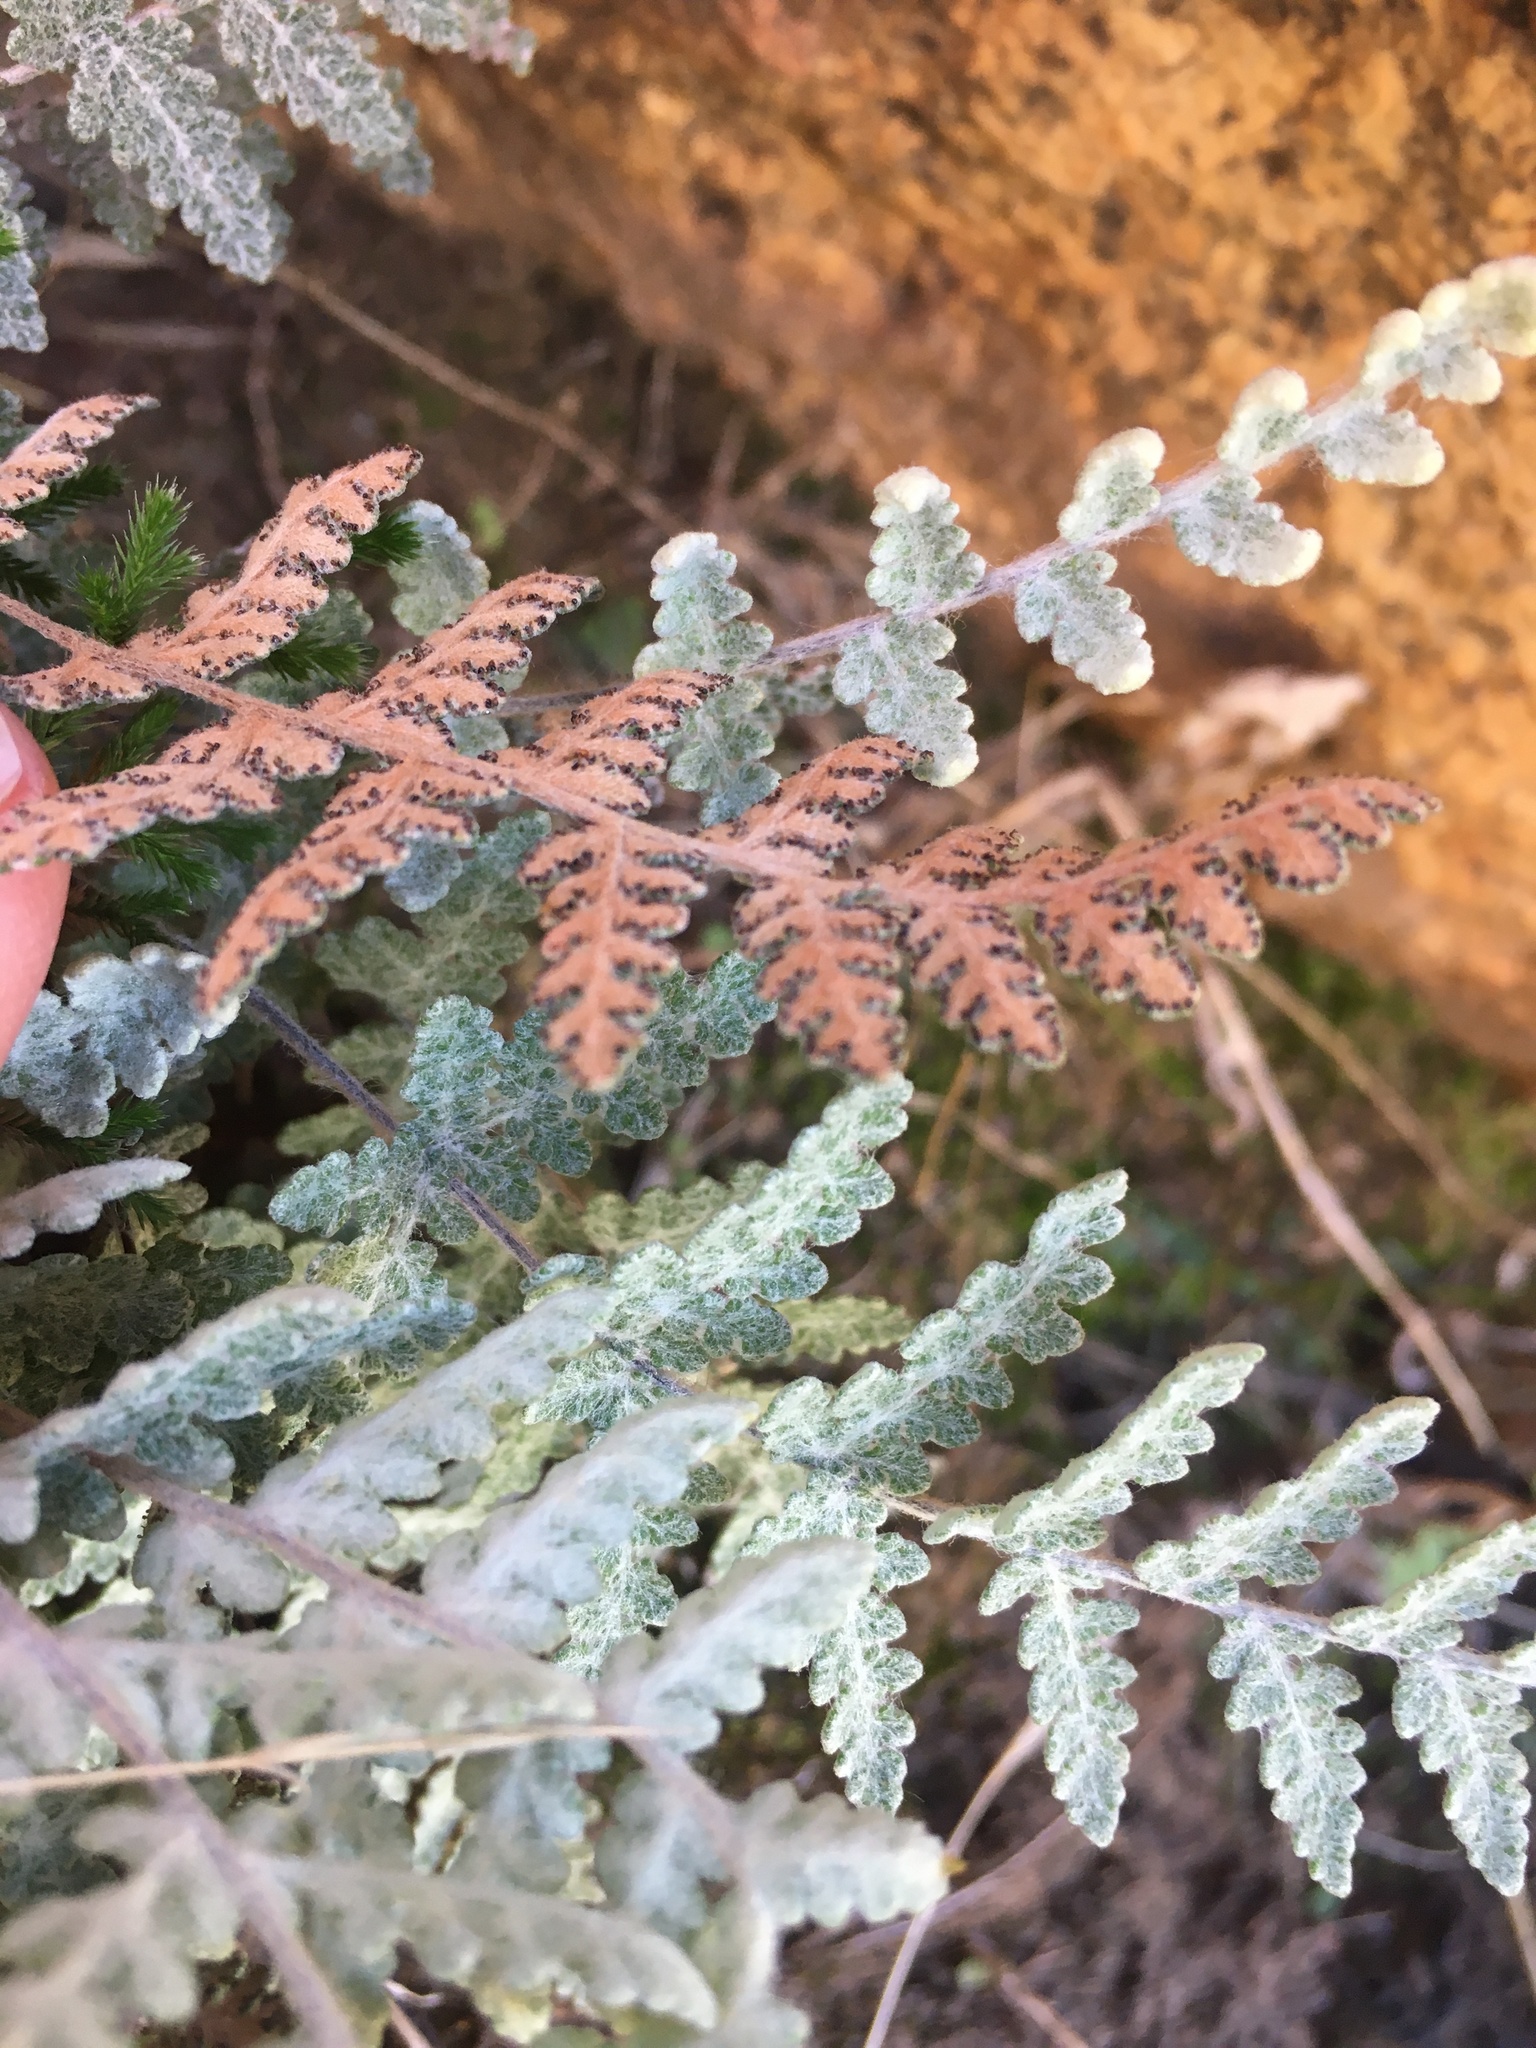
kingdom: Plantae
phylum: Tracheophyta
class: Polypodiopsida
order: Polypodiales
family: Pteridaceae
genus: Myriopteris
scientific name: Myriopteris newberryi
